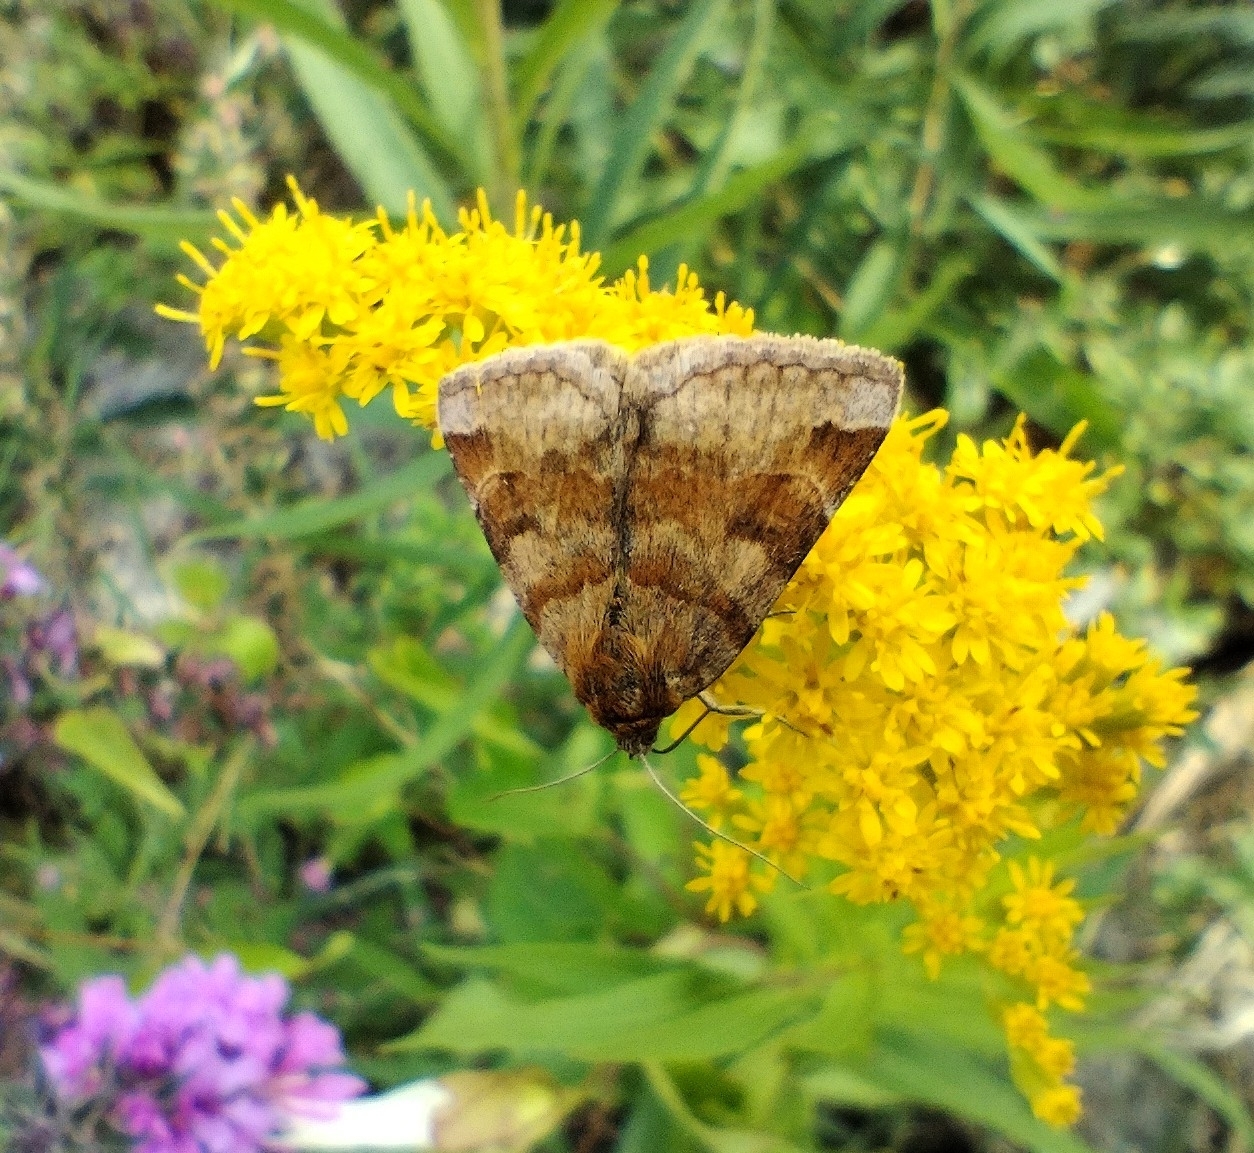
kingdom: Animalia
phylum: Arthropoda
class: Insecta
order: Lepidoptera
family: Erebidae
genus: Euclidia
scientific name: Euclidia glyphica
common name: Burnet companion
